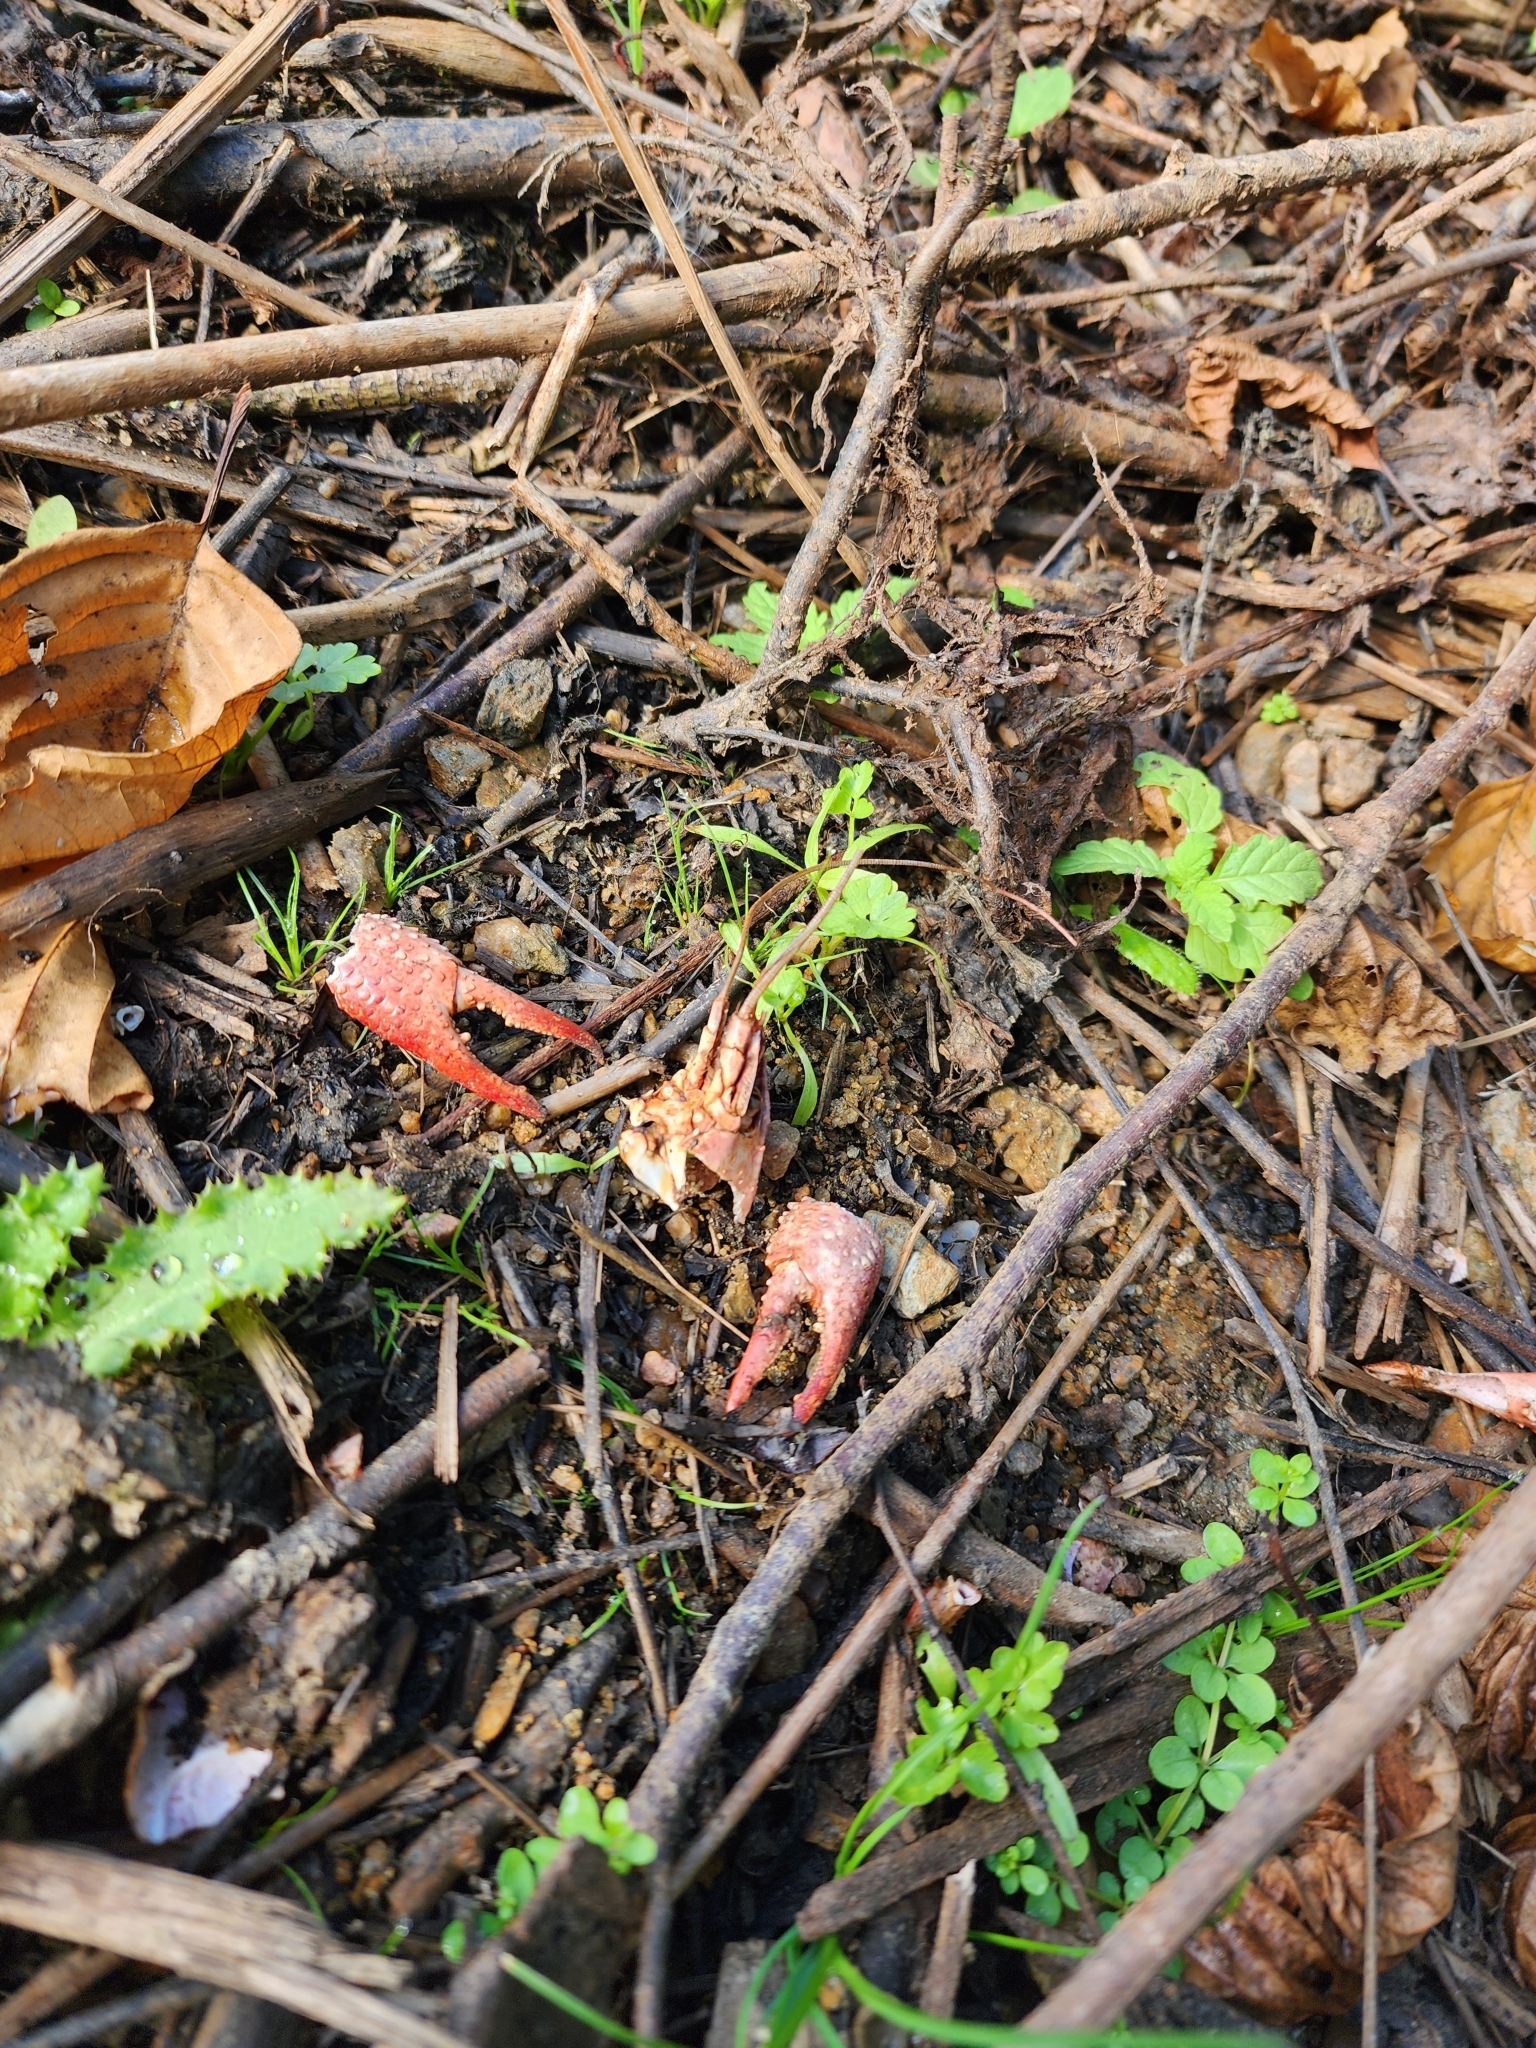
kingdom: Animalia
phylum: Arthropoda
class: Malacostraca
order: Decapoda
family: Cambaridae
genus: Procambarus
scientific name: Procambarus clarkii
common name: Red swamp crayfish
